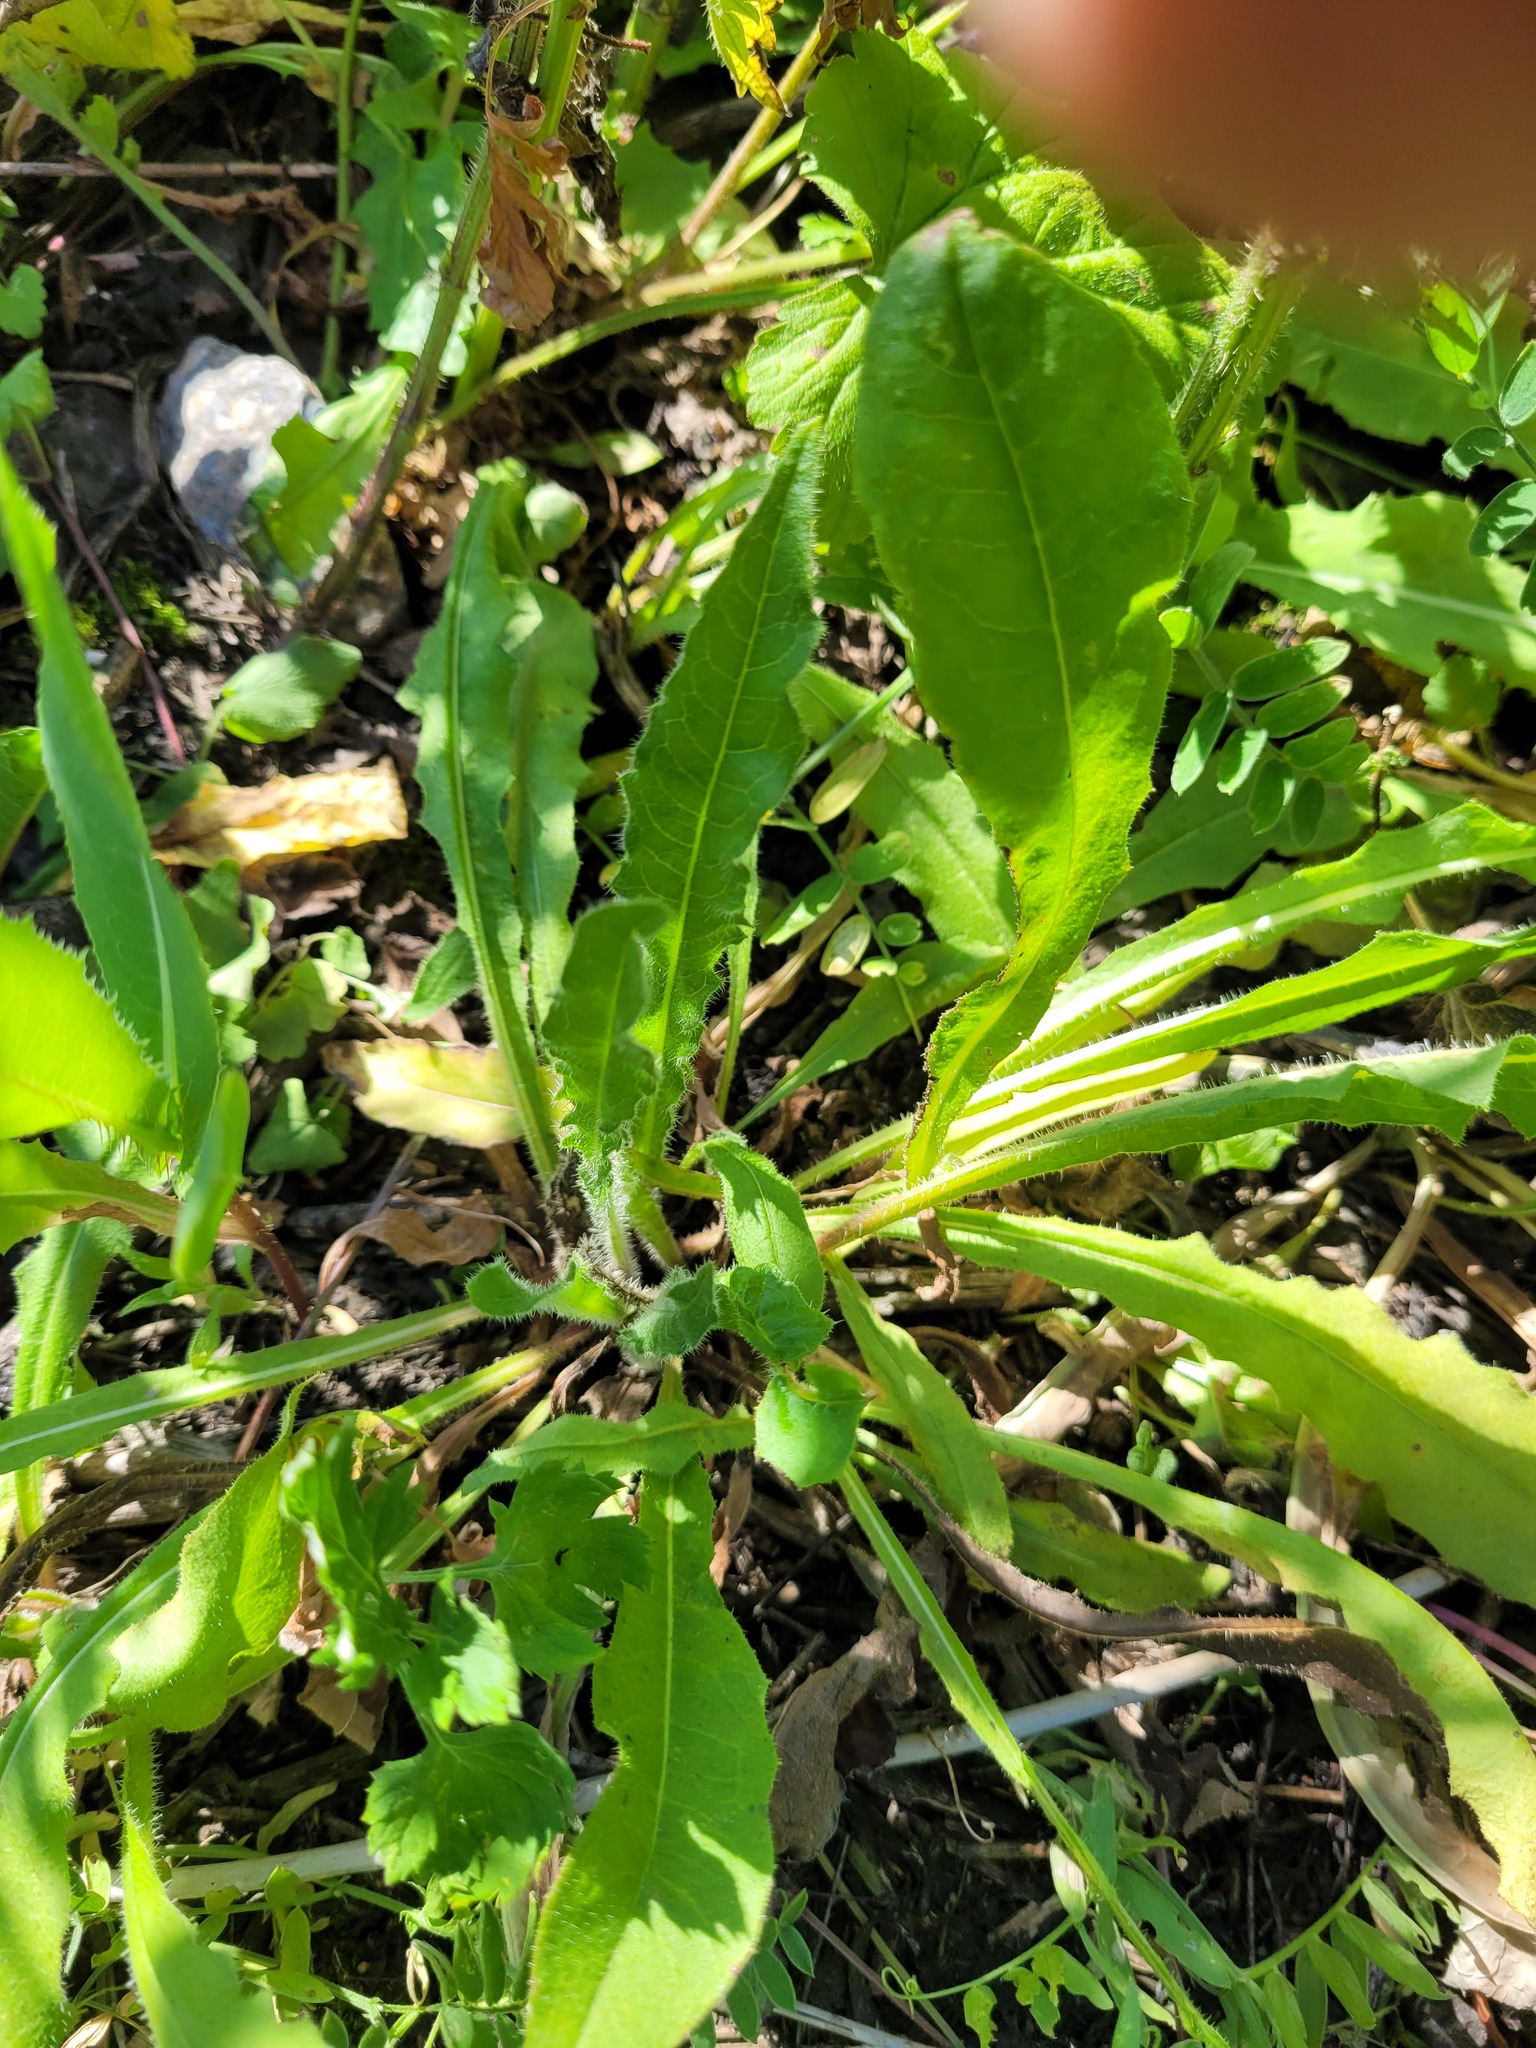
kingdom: Plantae
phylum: Tracheophyta
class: Magnoliopsida
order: Asterales
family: Asteraceae
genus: Picris
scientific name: Picris hieracioides
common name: Hawkweed oxtongue
